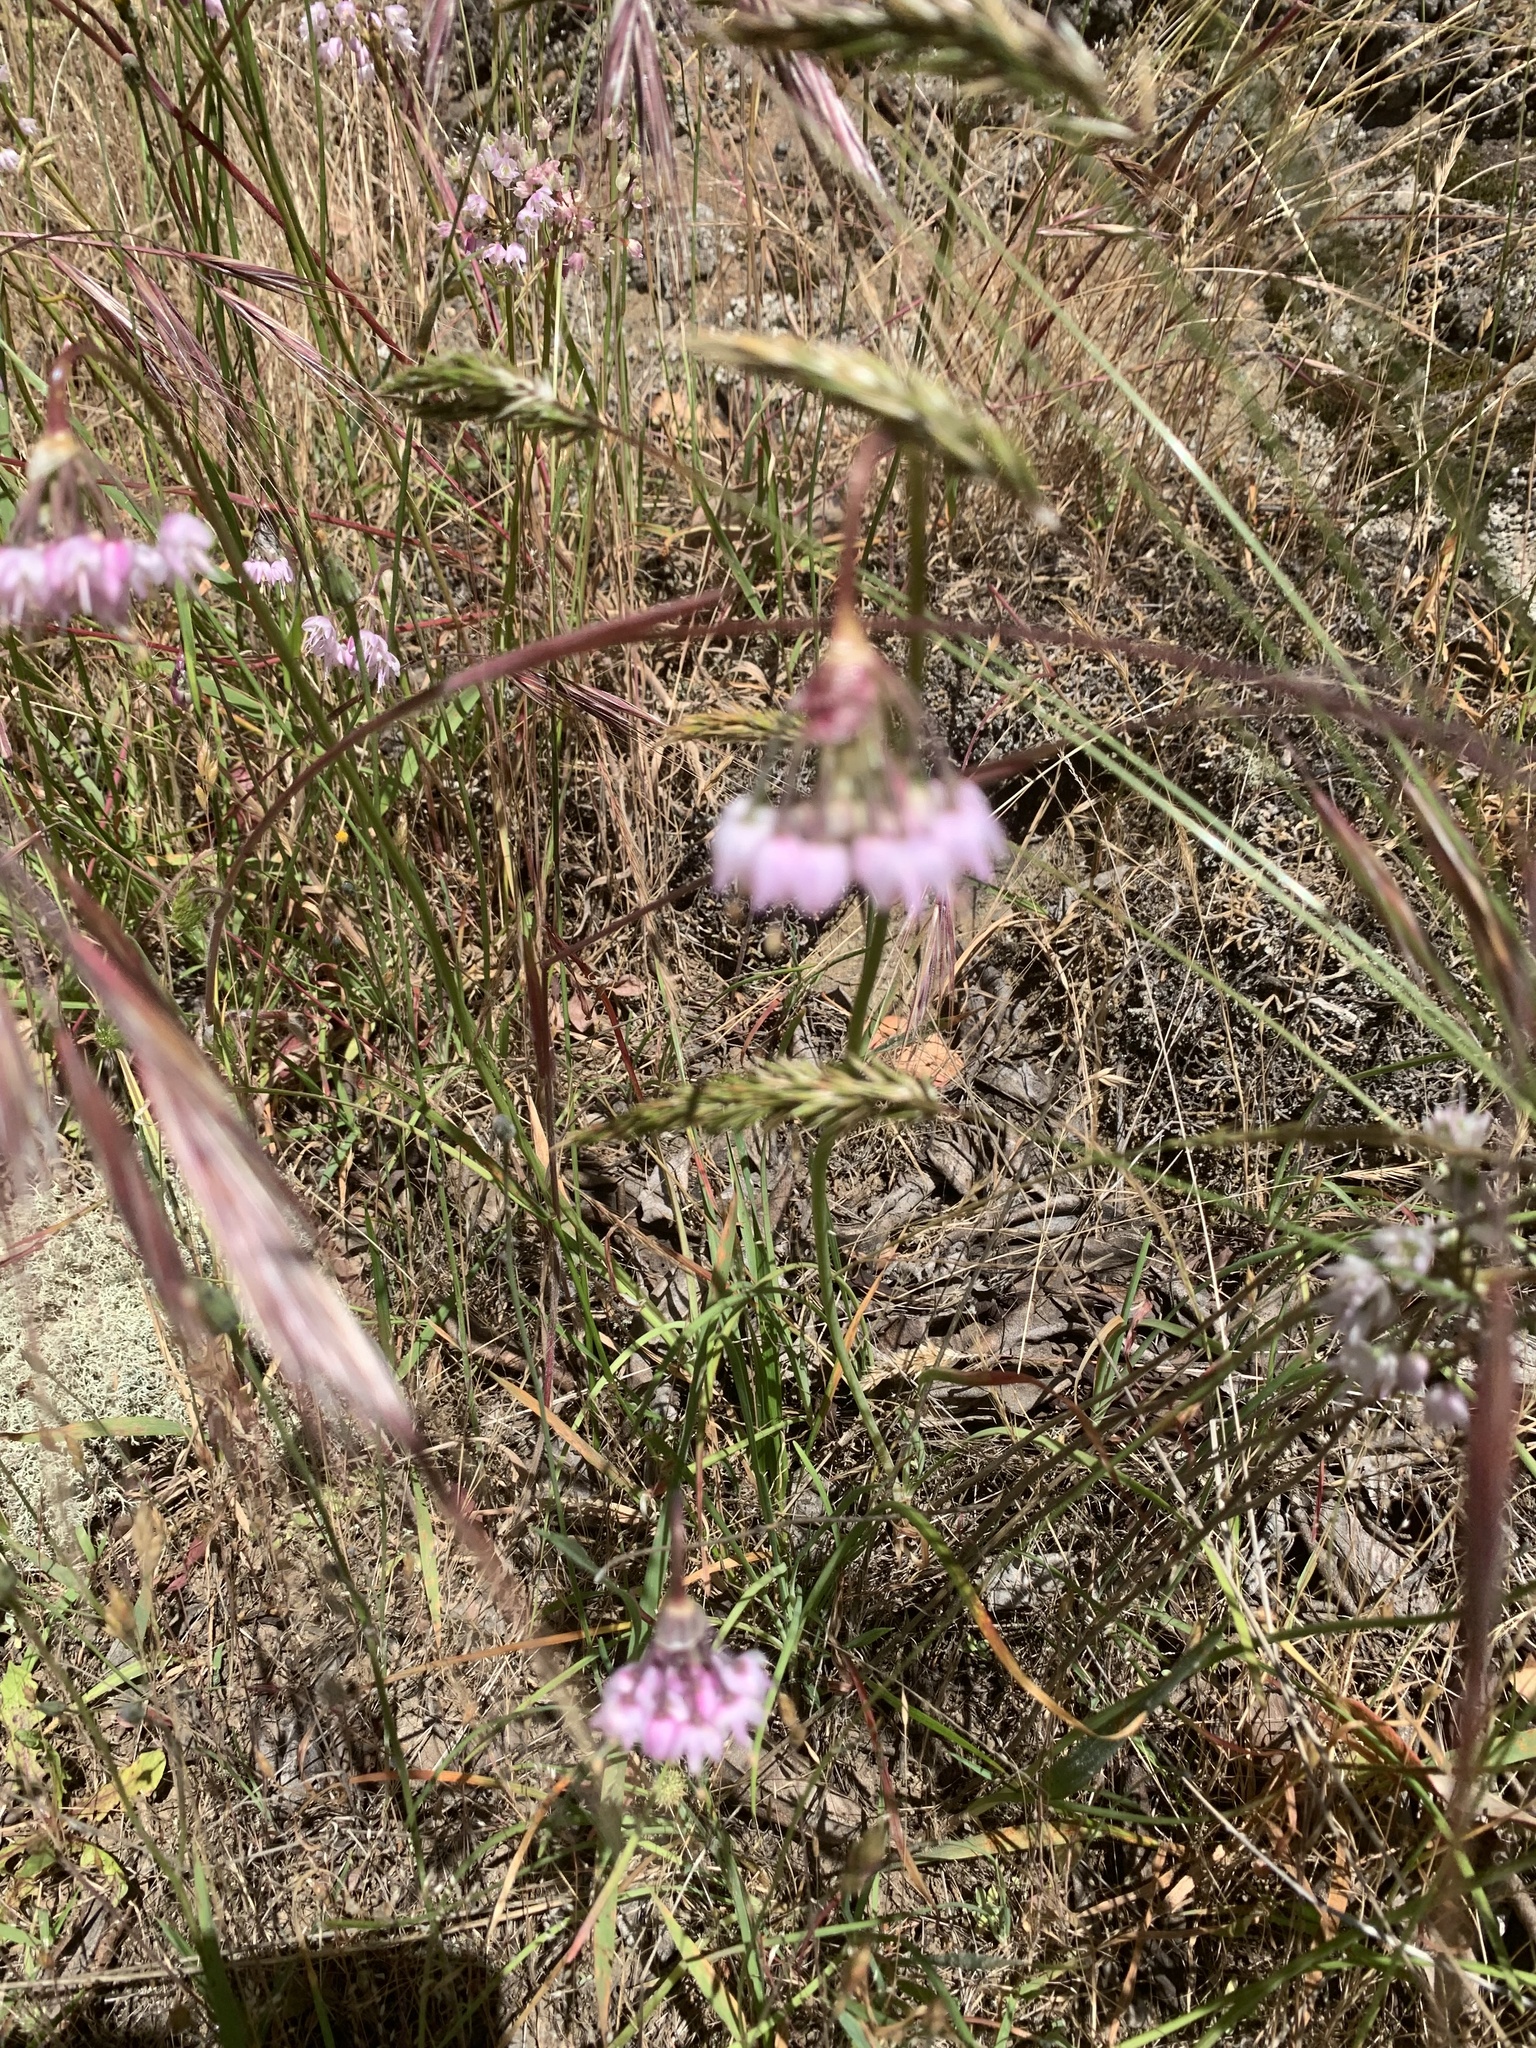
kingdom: Plantae
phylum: Tracheophyta
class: Liliopsida
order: Asparagales
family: Amaryllidaceae
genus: Allium
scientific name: Allium cernuum
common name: Nodding onion
